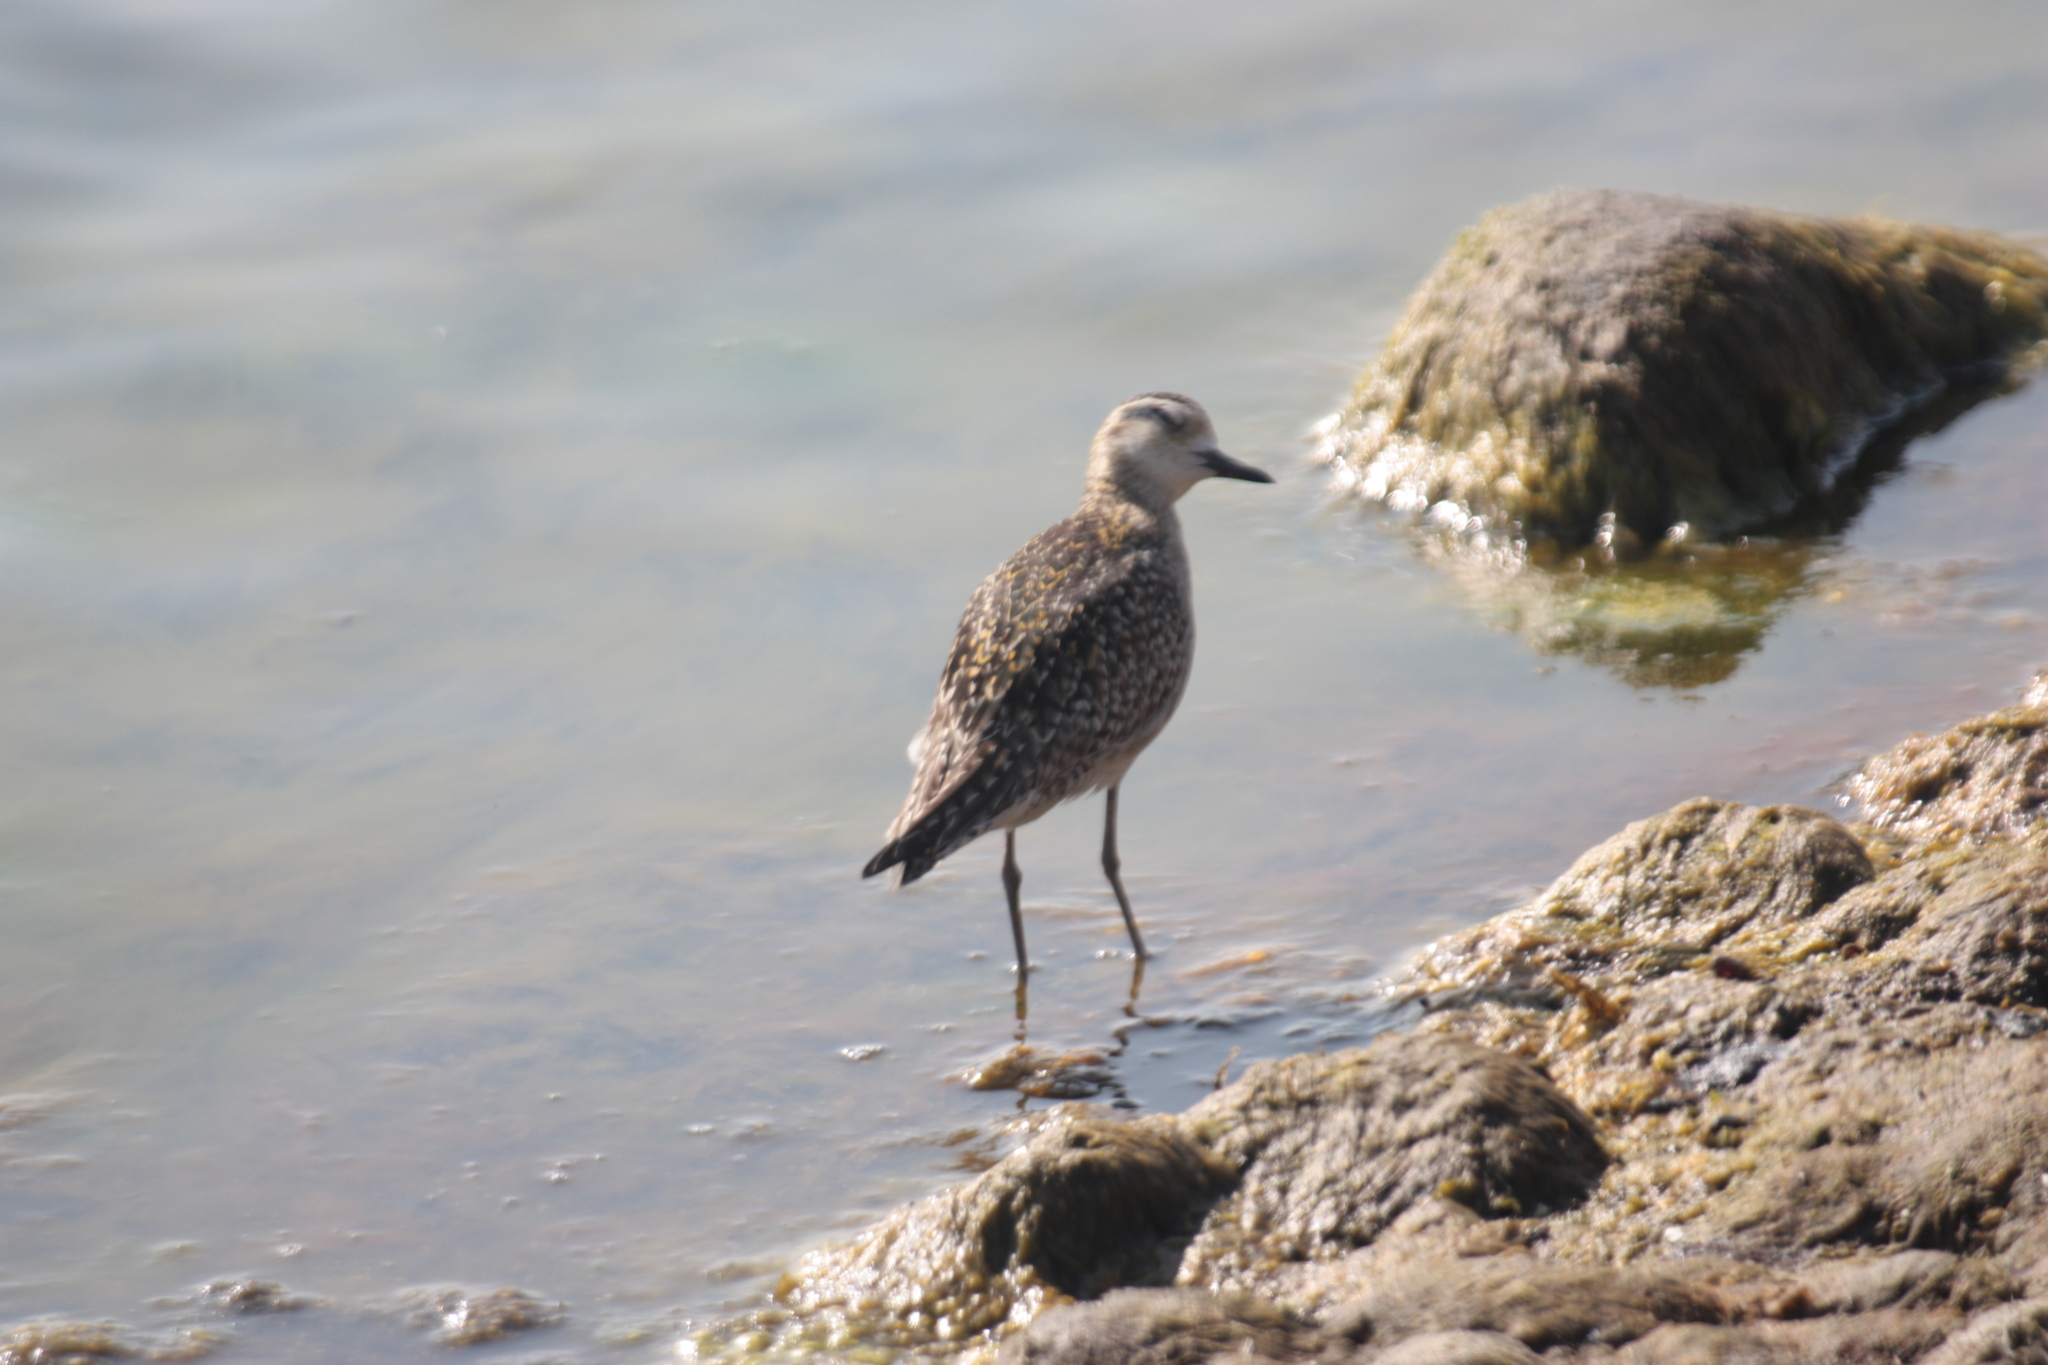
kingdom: Animalia
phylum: Chordata
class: Aves
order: Charadriiformes
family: Charadriidae
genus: Pluvialis
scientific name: Pluvialis fulva
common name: Pacific golden plover
